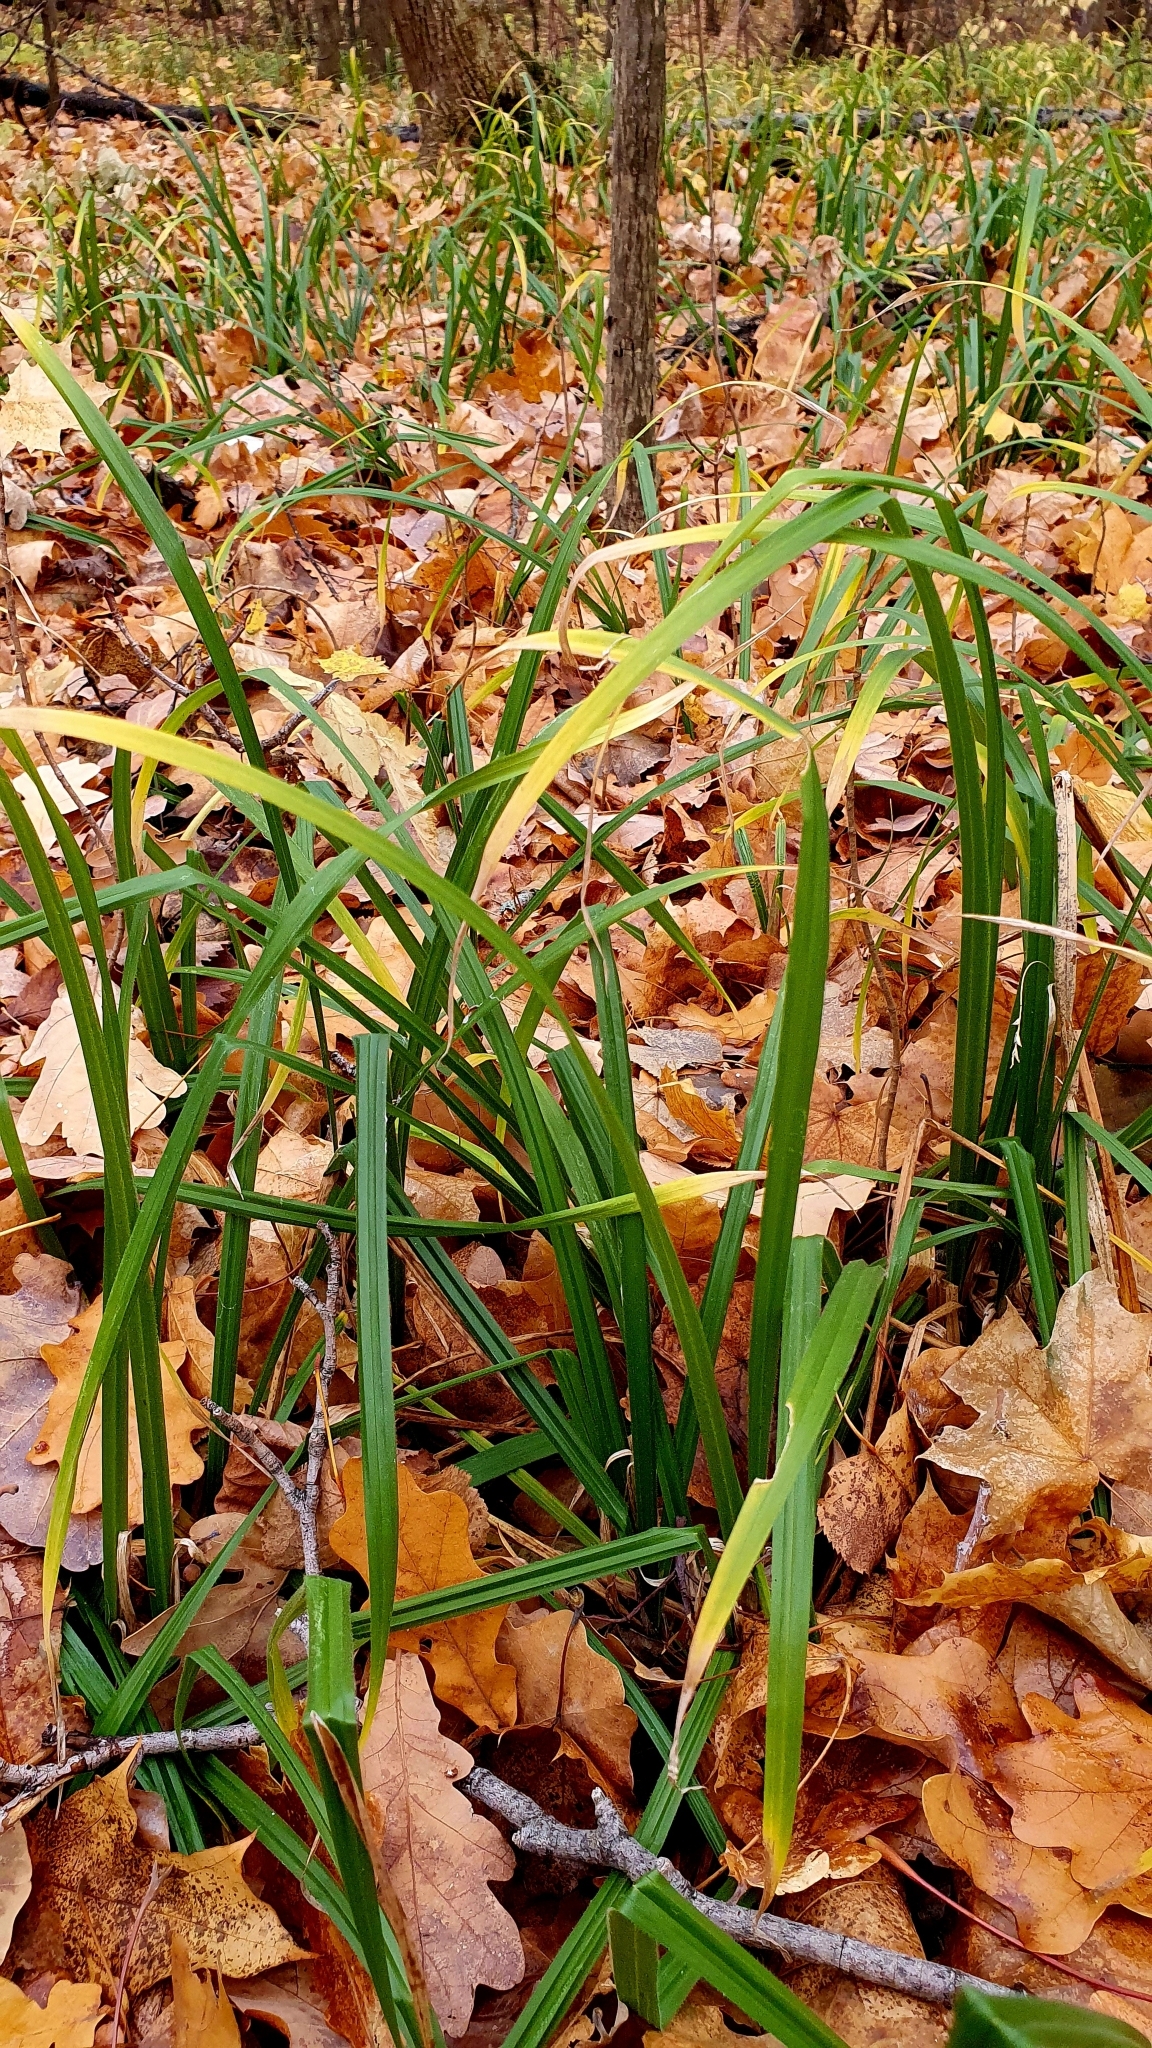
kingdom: Plantae
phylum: Tracheophyta
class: Liliopsida
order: Poales
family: Cyperaceae
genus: Carex
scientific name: Carex pilosa
